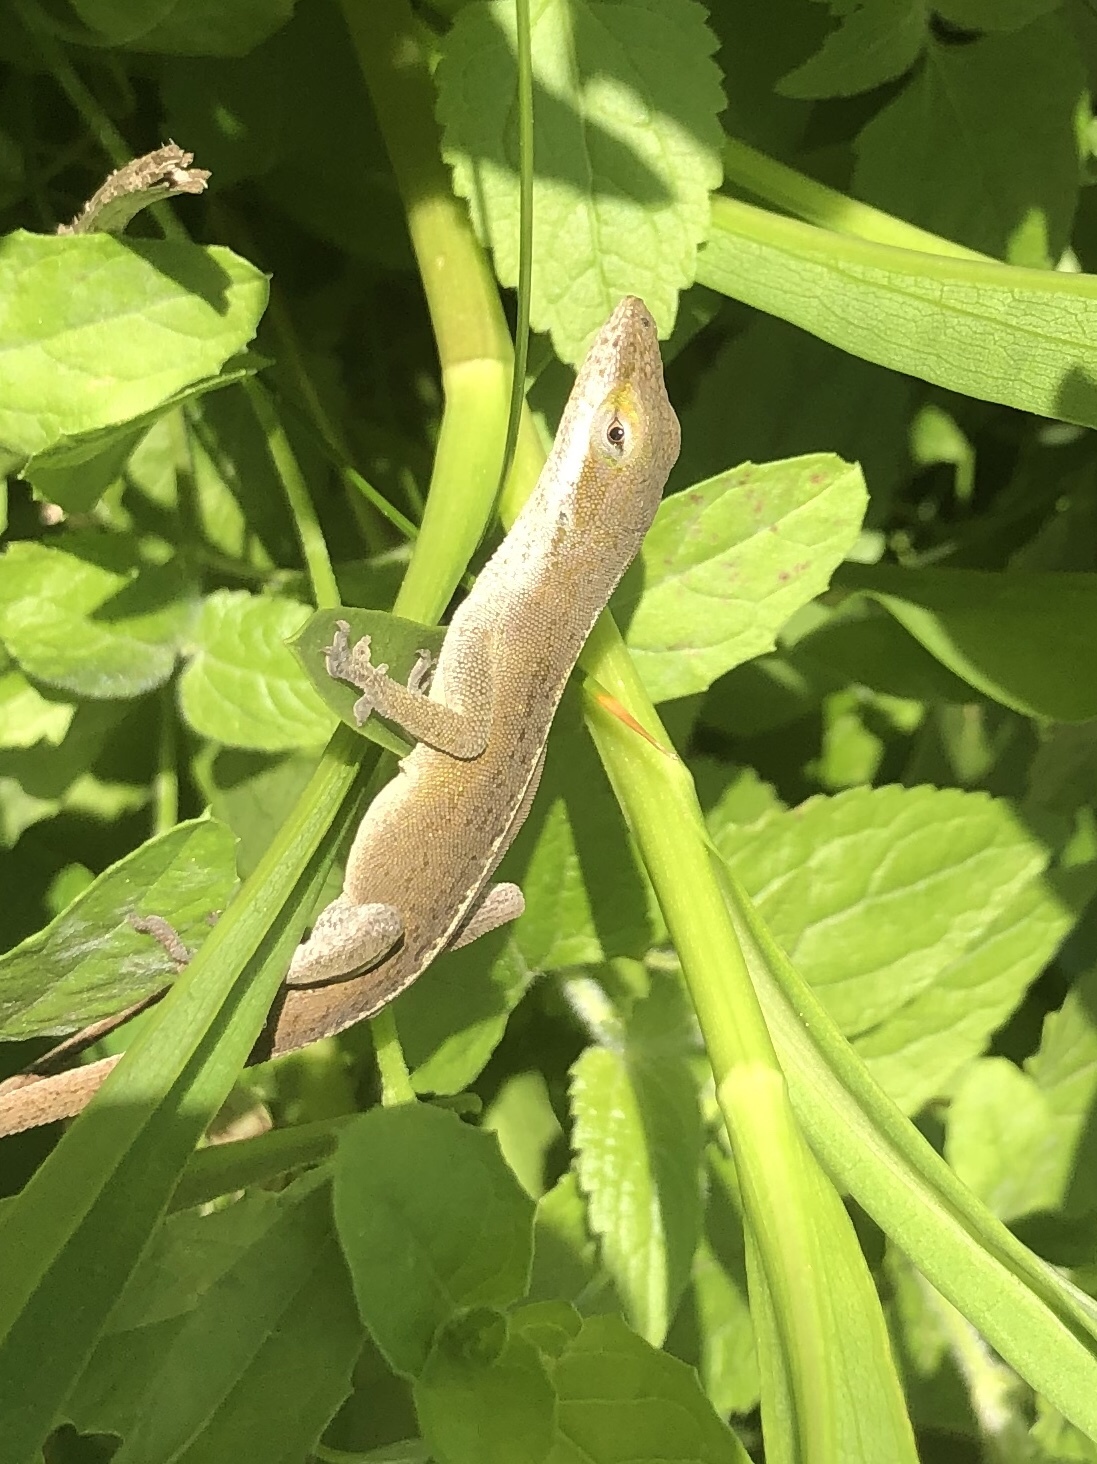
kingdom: Animalia
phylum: Chordata
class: Squamata
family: Dactyloidae
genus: Anolis
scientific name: Anolis carolinensis
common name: Green anole
